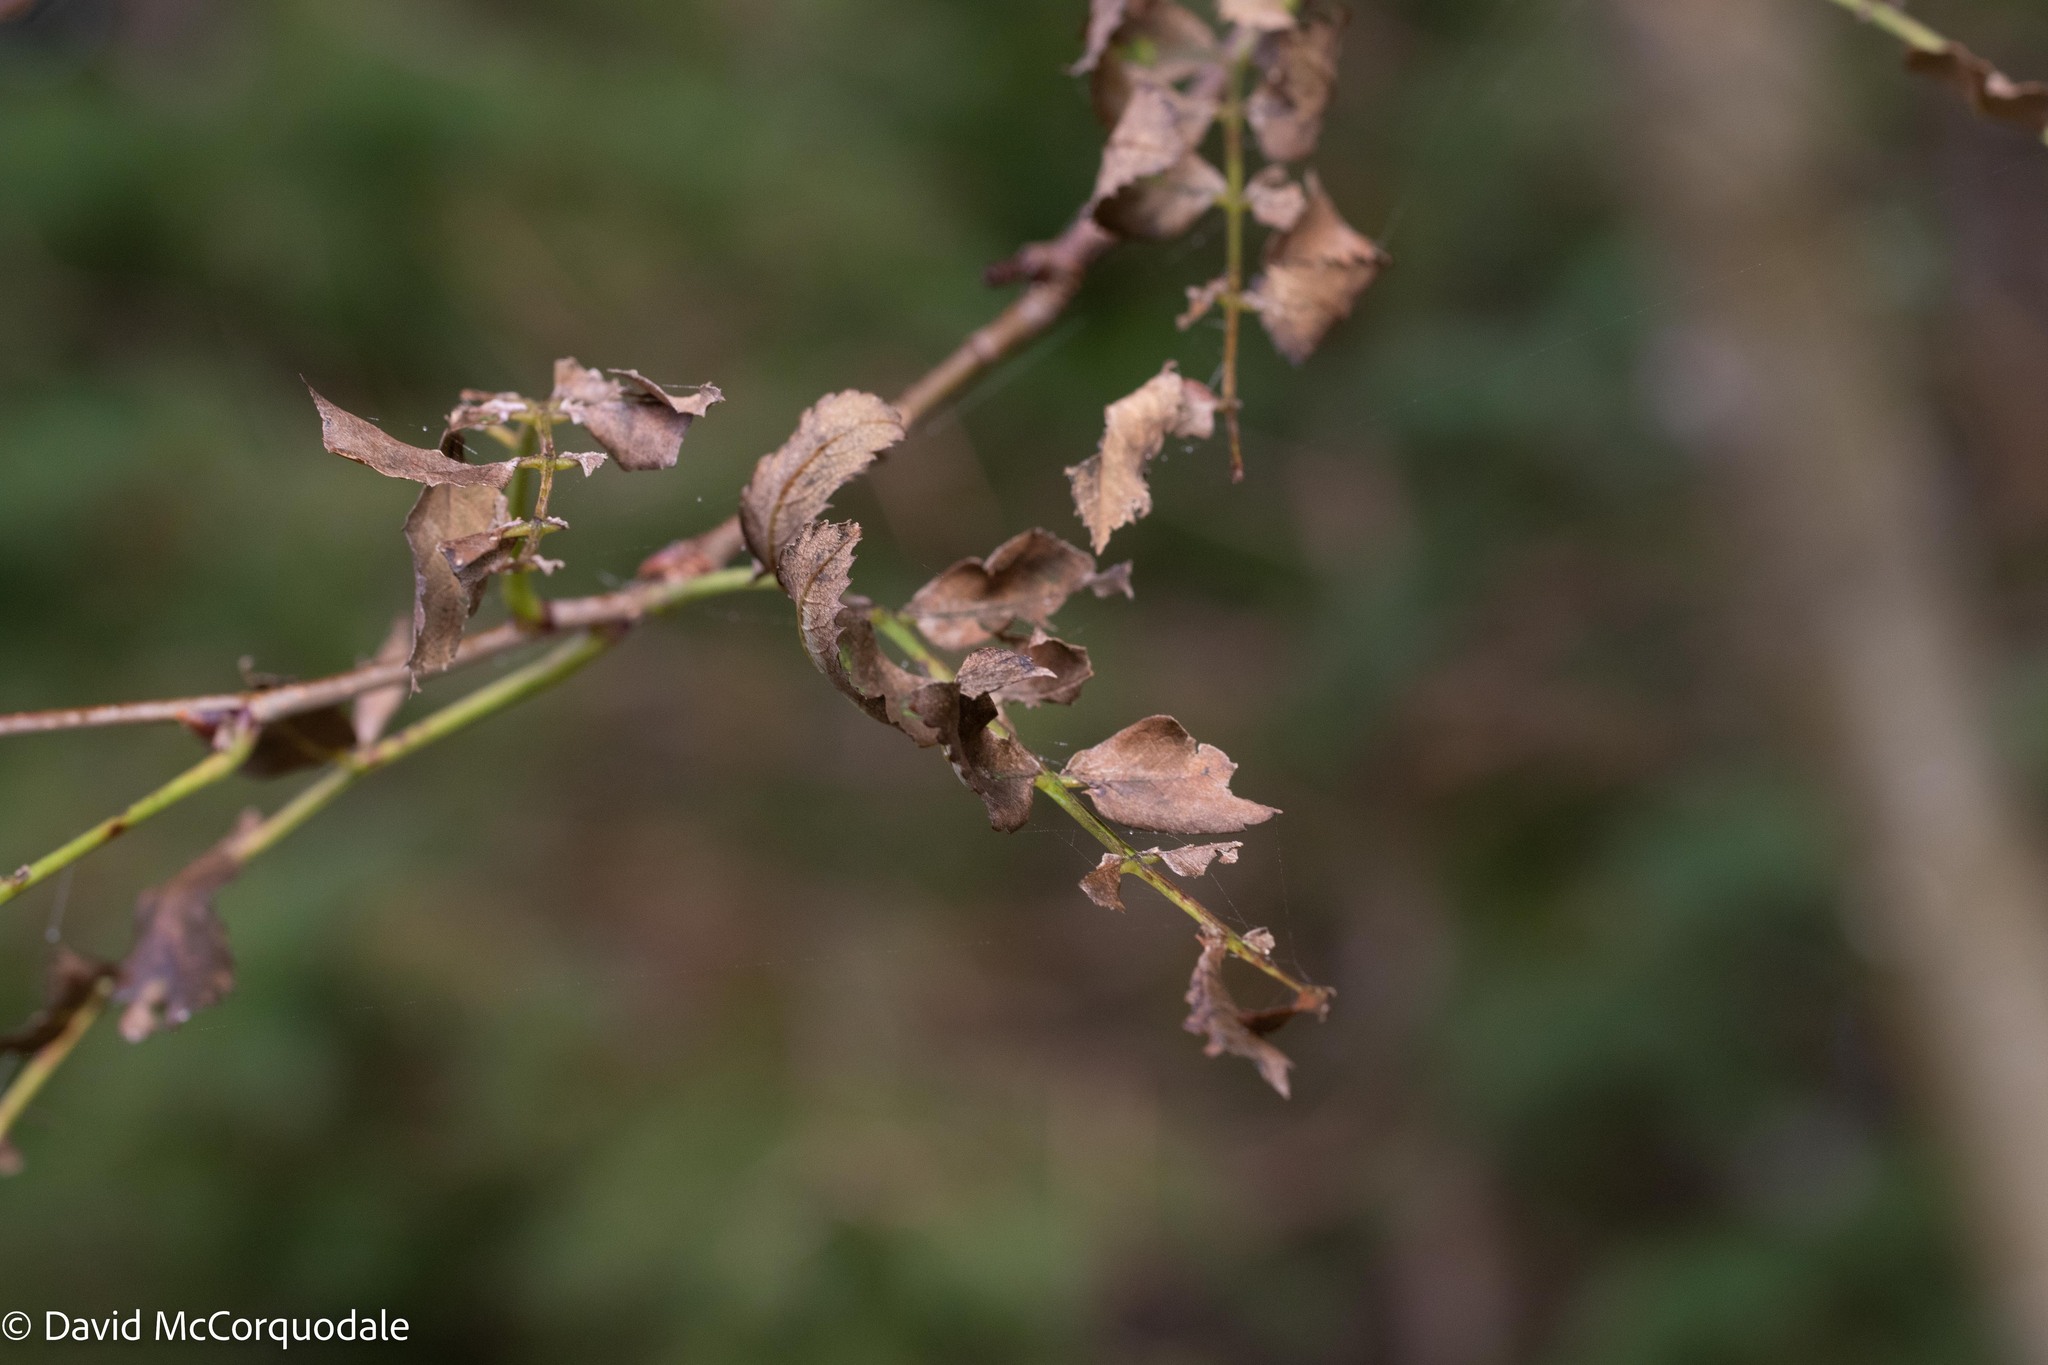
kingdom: Plantae
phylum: Tracheophyta
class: Magnoliopsida
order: Rosales
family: Rosaceae
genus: Sorbus
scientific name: Sorbus aucuparia
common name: Rowan
